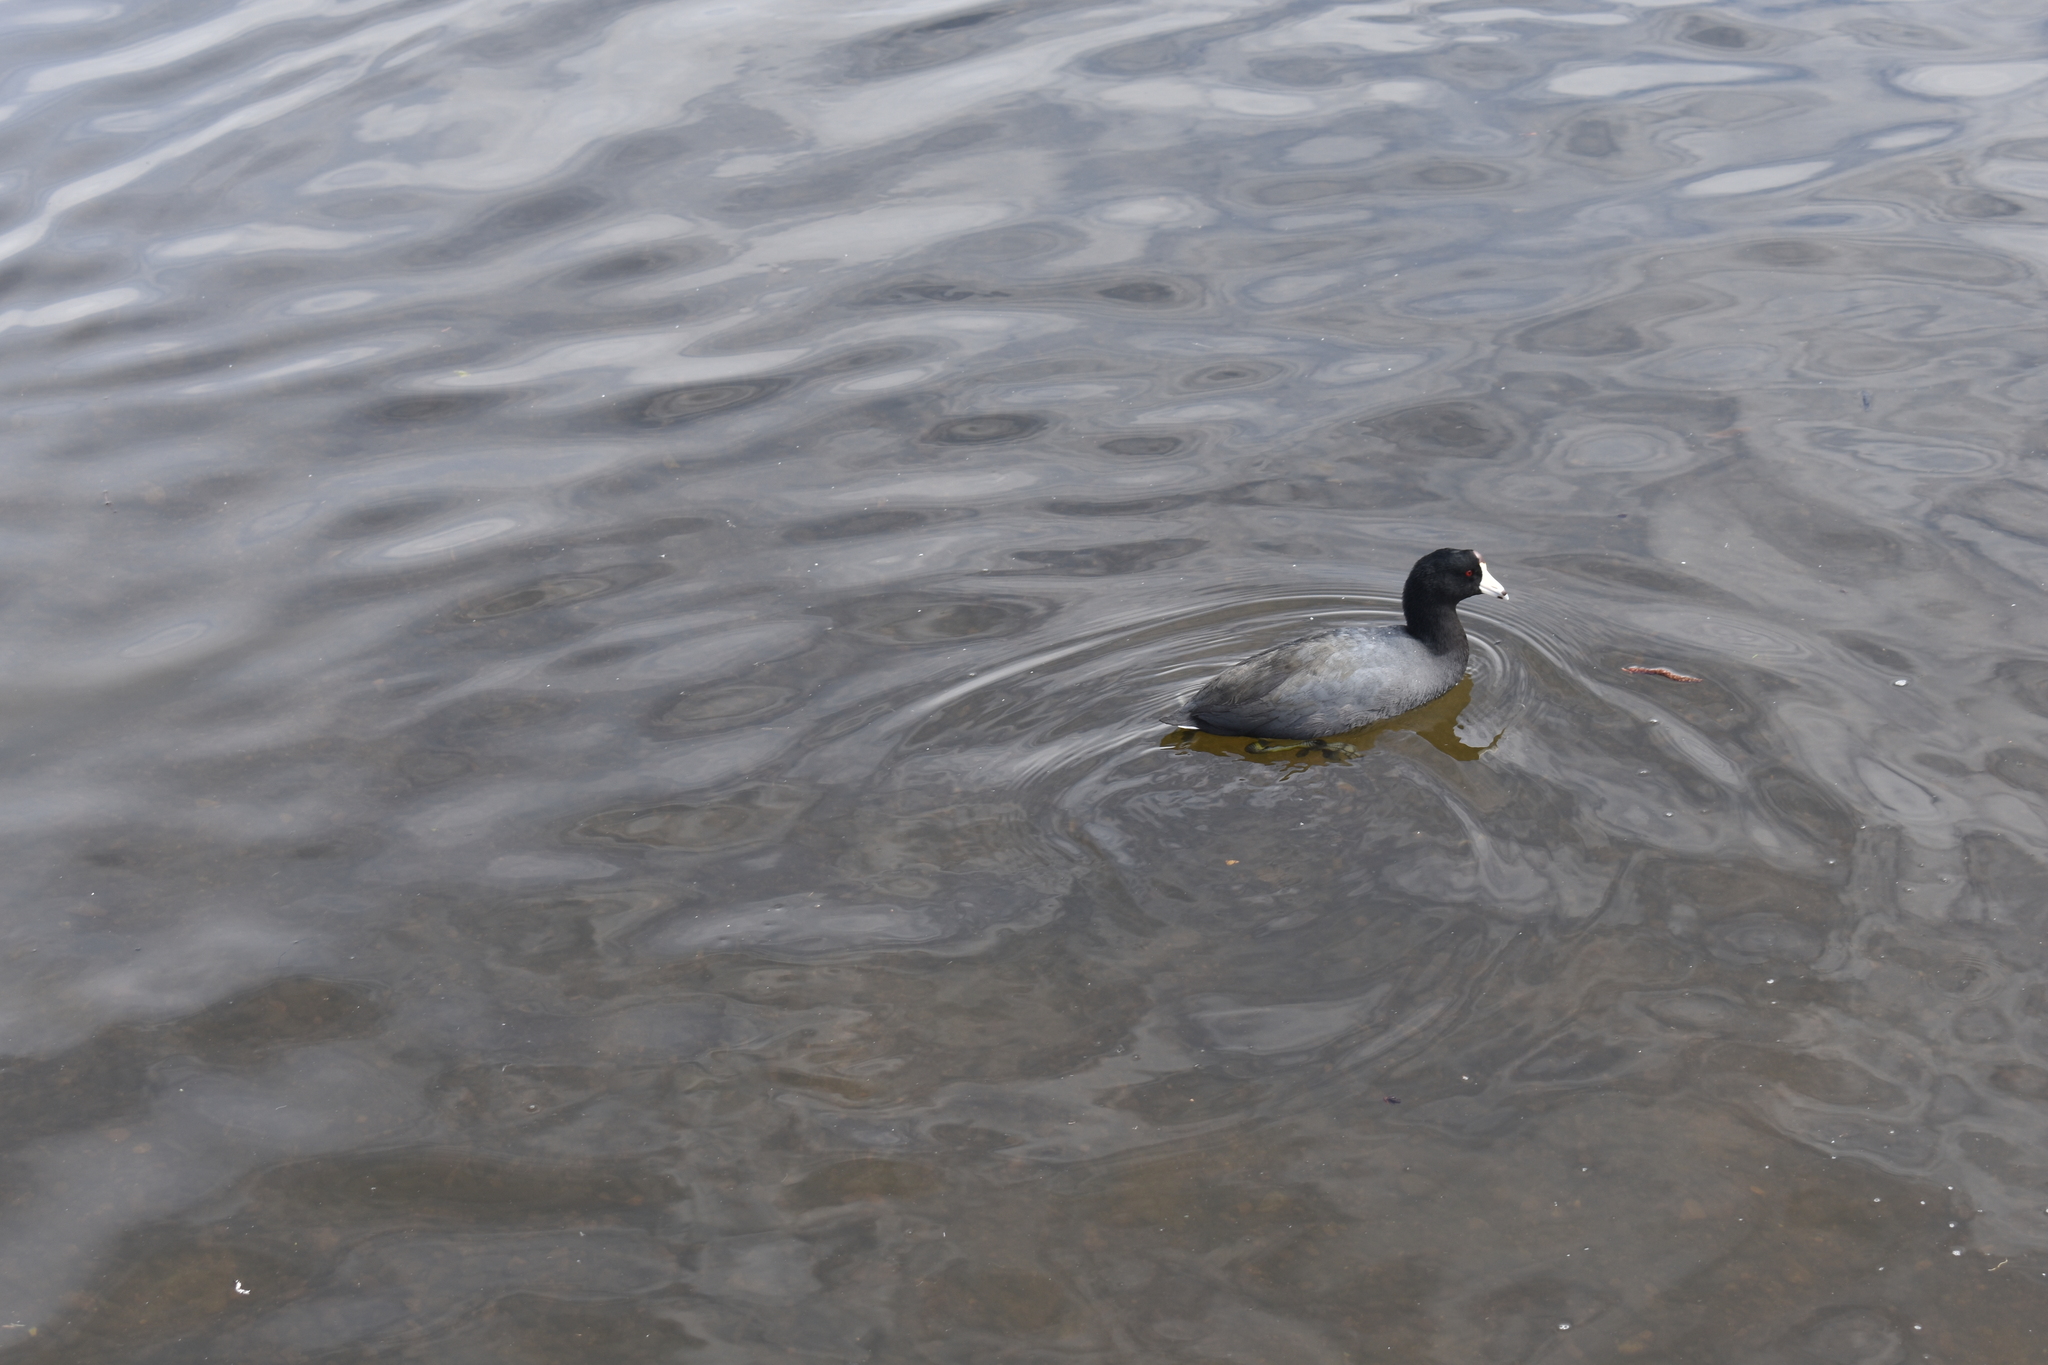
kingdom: Animalia
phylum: Chordata
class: Aves
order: Gruiformes
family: Rallidae
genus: Fulica
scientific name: Fulica americana
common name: American coot
